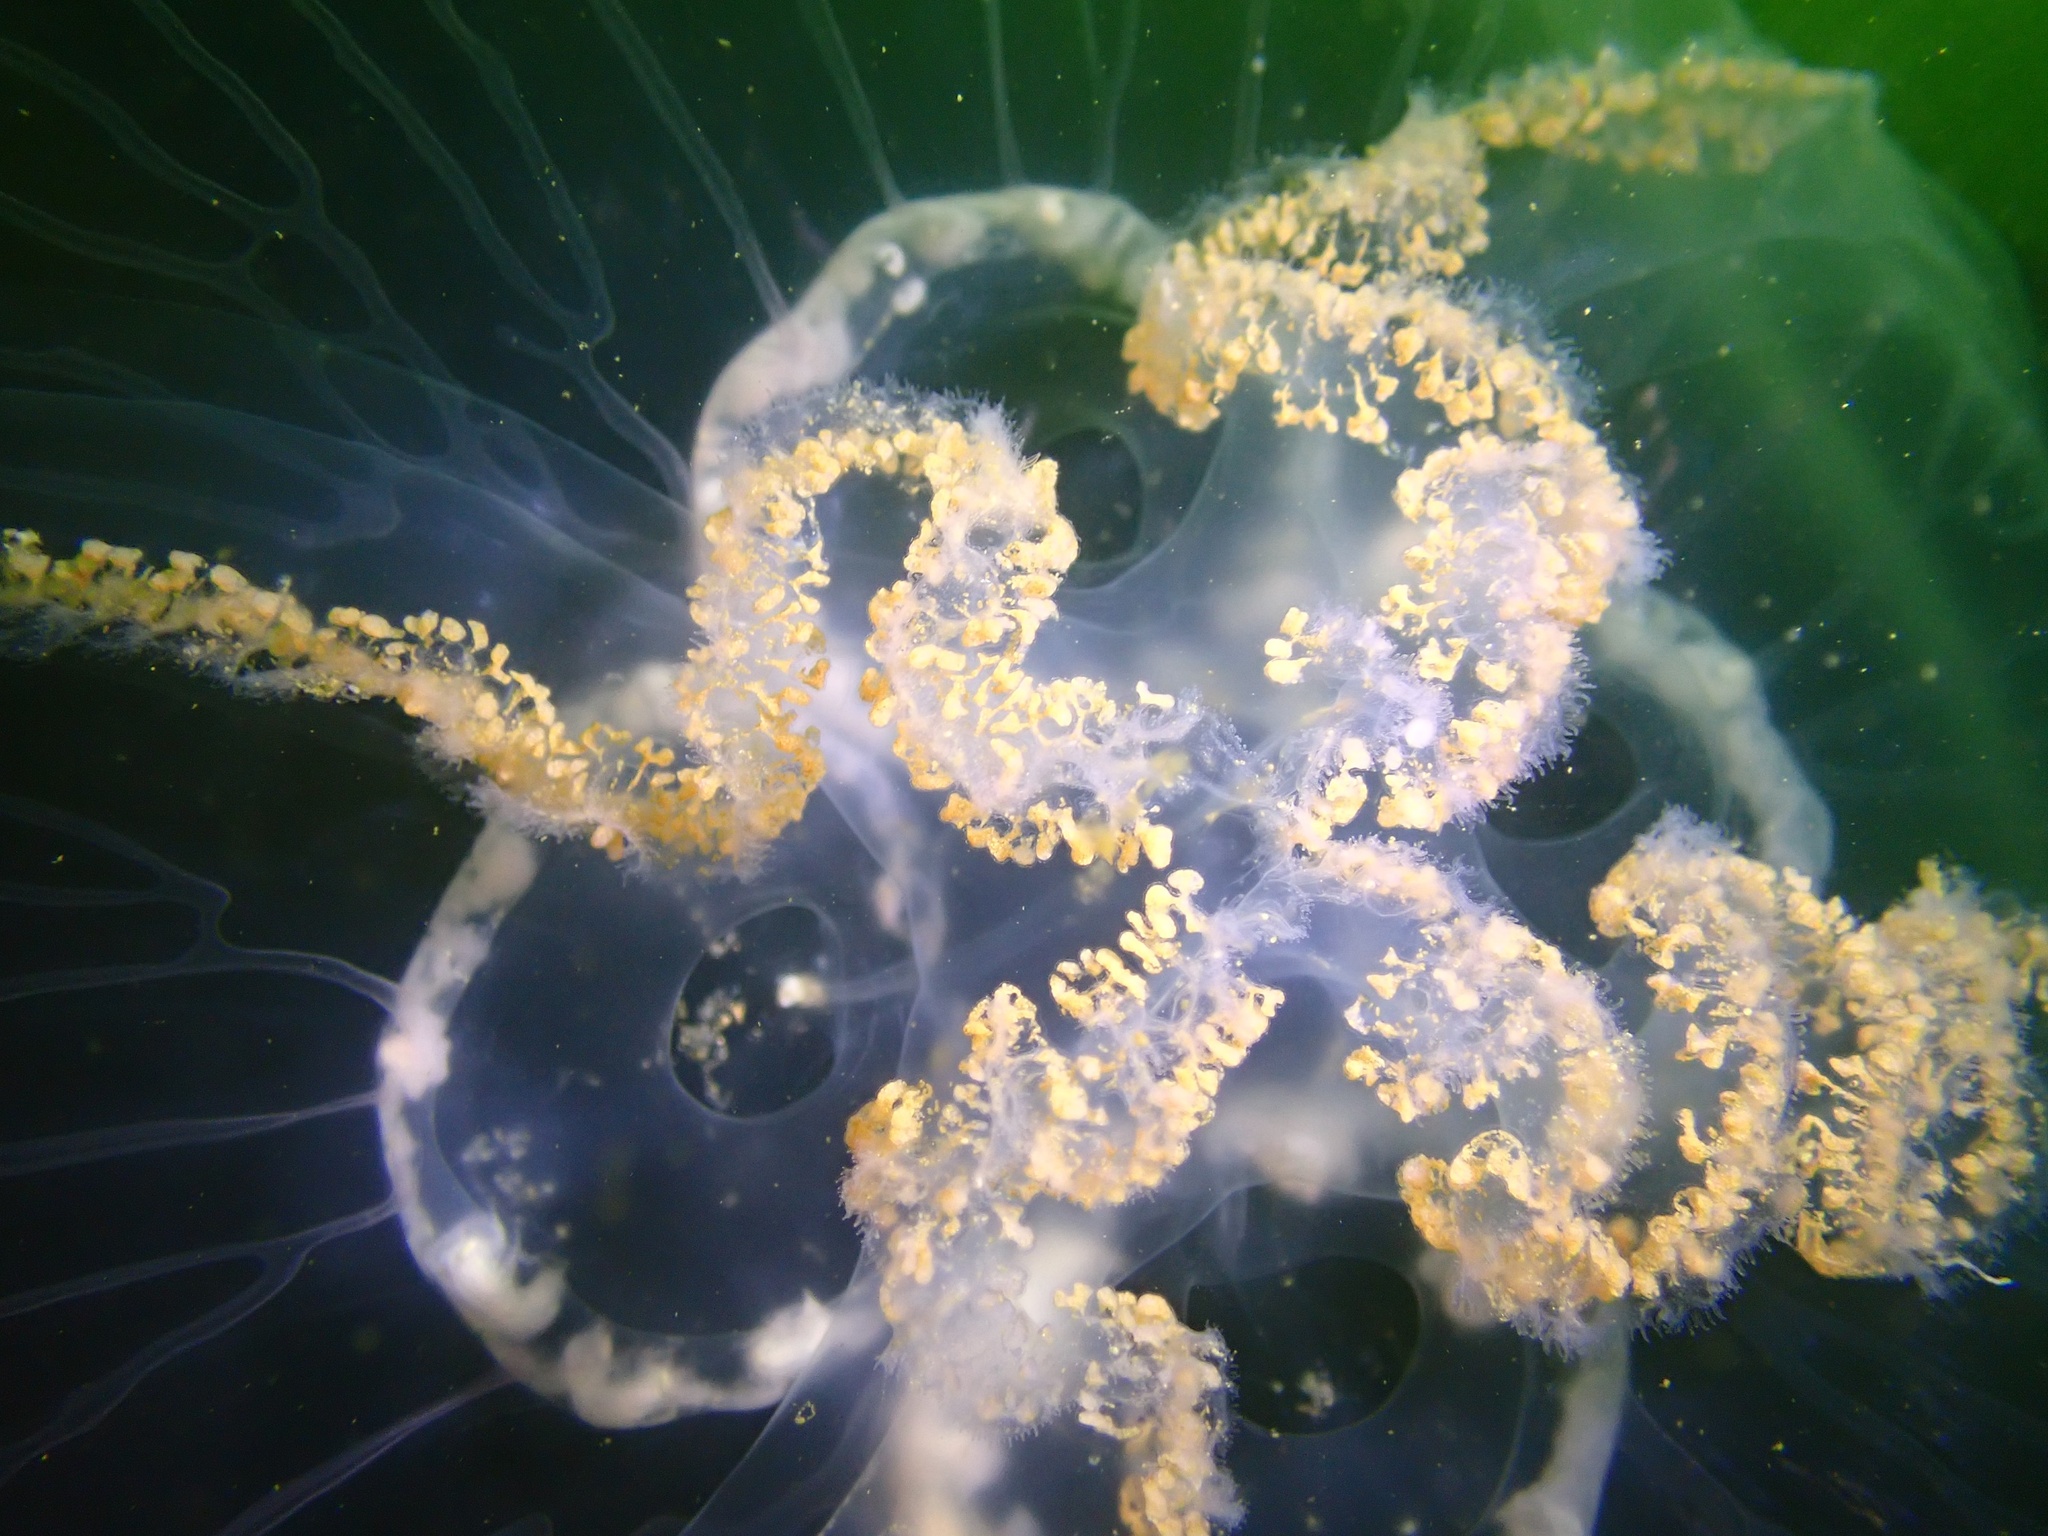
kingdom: Animalia
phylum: Cnidaria
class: Scyphozoa
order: Semaeostomeae
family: Ulmaridae
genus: Aurelia
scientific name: Aurelia aurita
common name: Moon jellyfish
